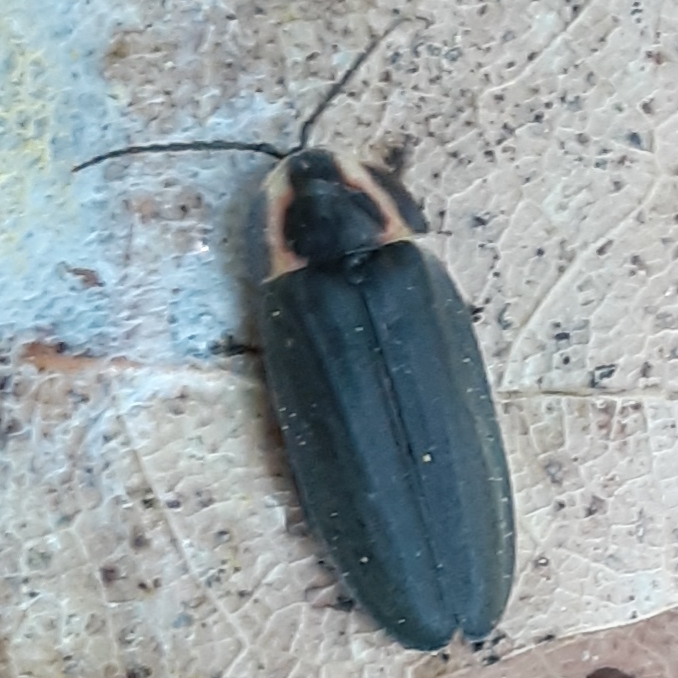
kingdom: Animalia
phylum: Arthropoda
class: Insecta
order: Coleoptera
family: Lampyridae
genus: Photinus
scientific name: Photinus corrusca
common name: Winter firefly
